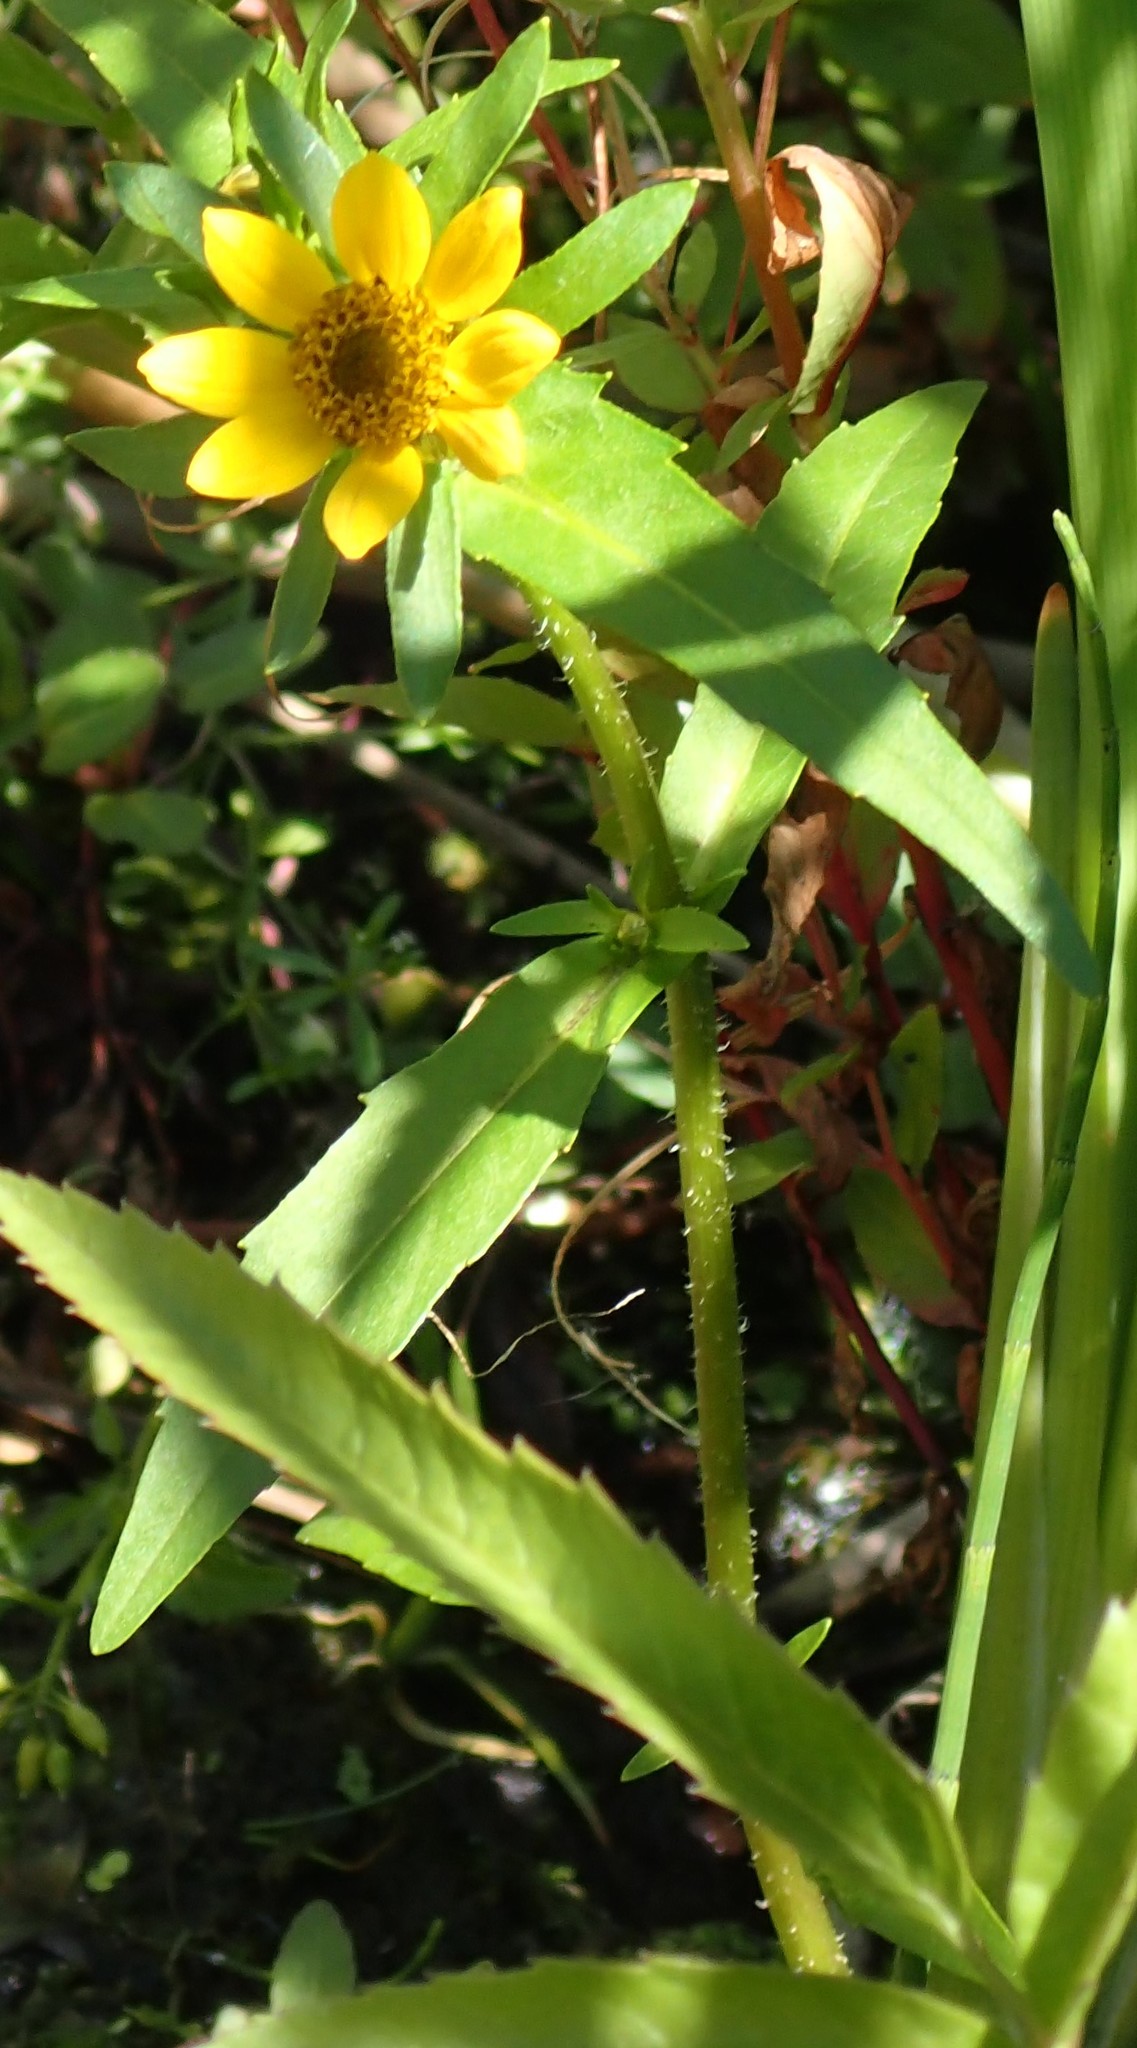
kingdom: Plantae
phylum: Tracheophyta
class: Magnoliopsida
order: Asterales
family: Asteraceae
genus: Bidens
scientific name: Bidens cernua
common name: Nodding bur-marigold
